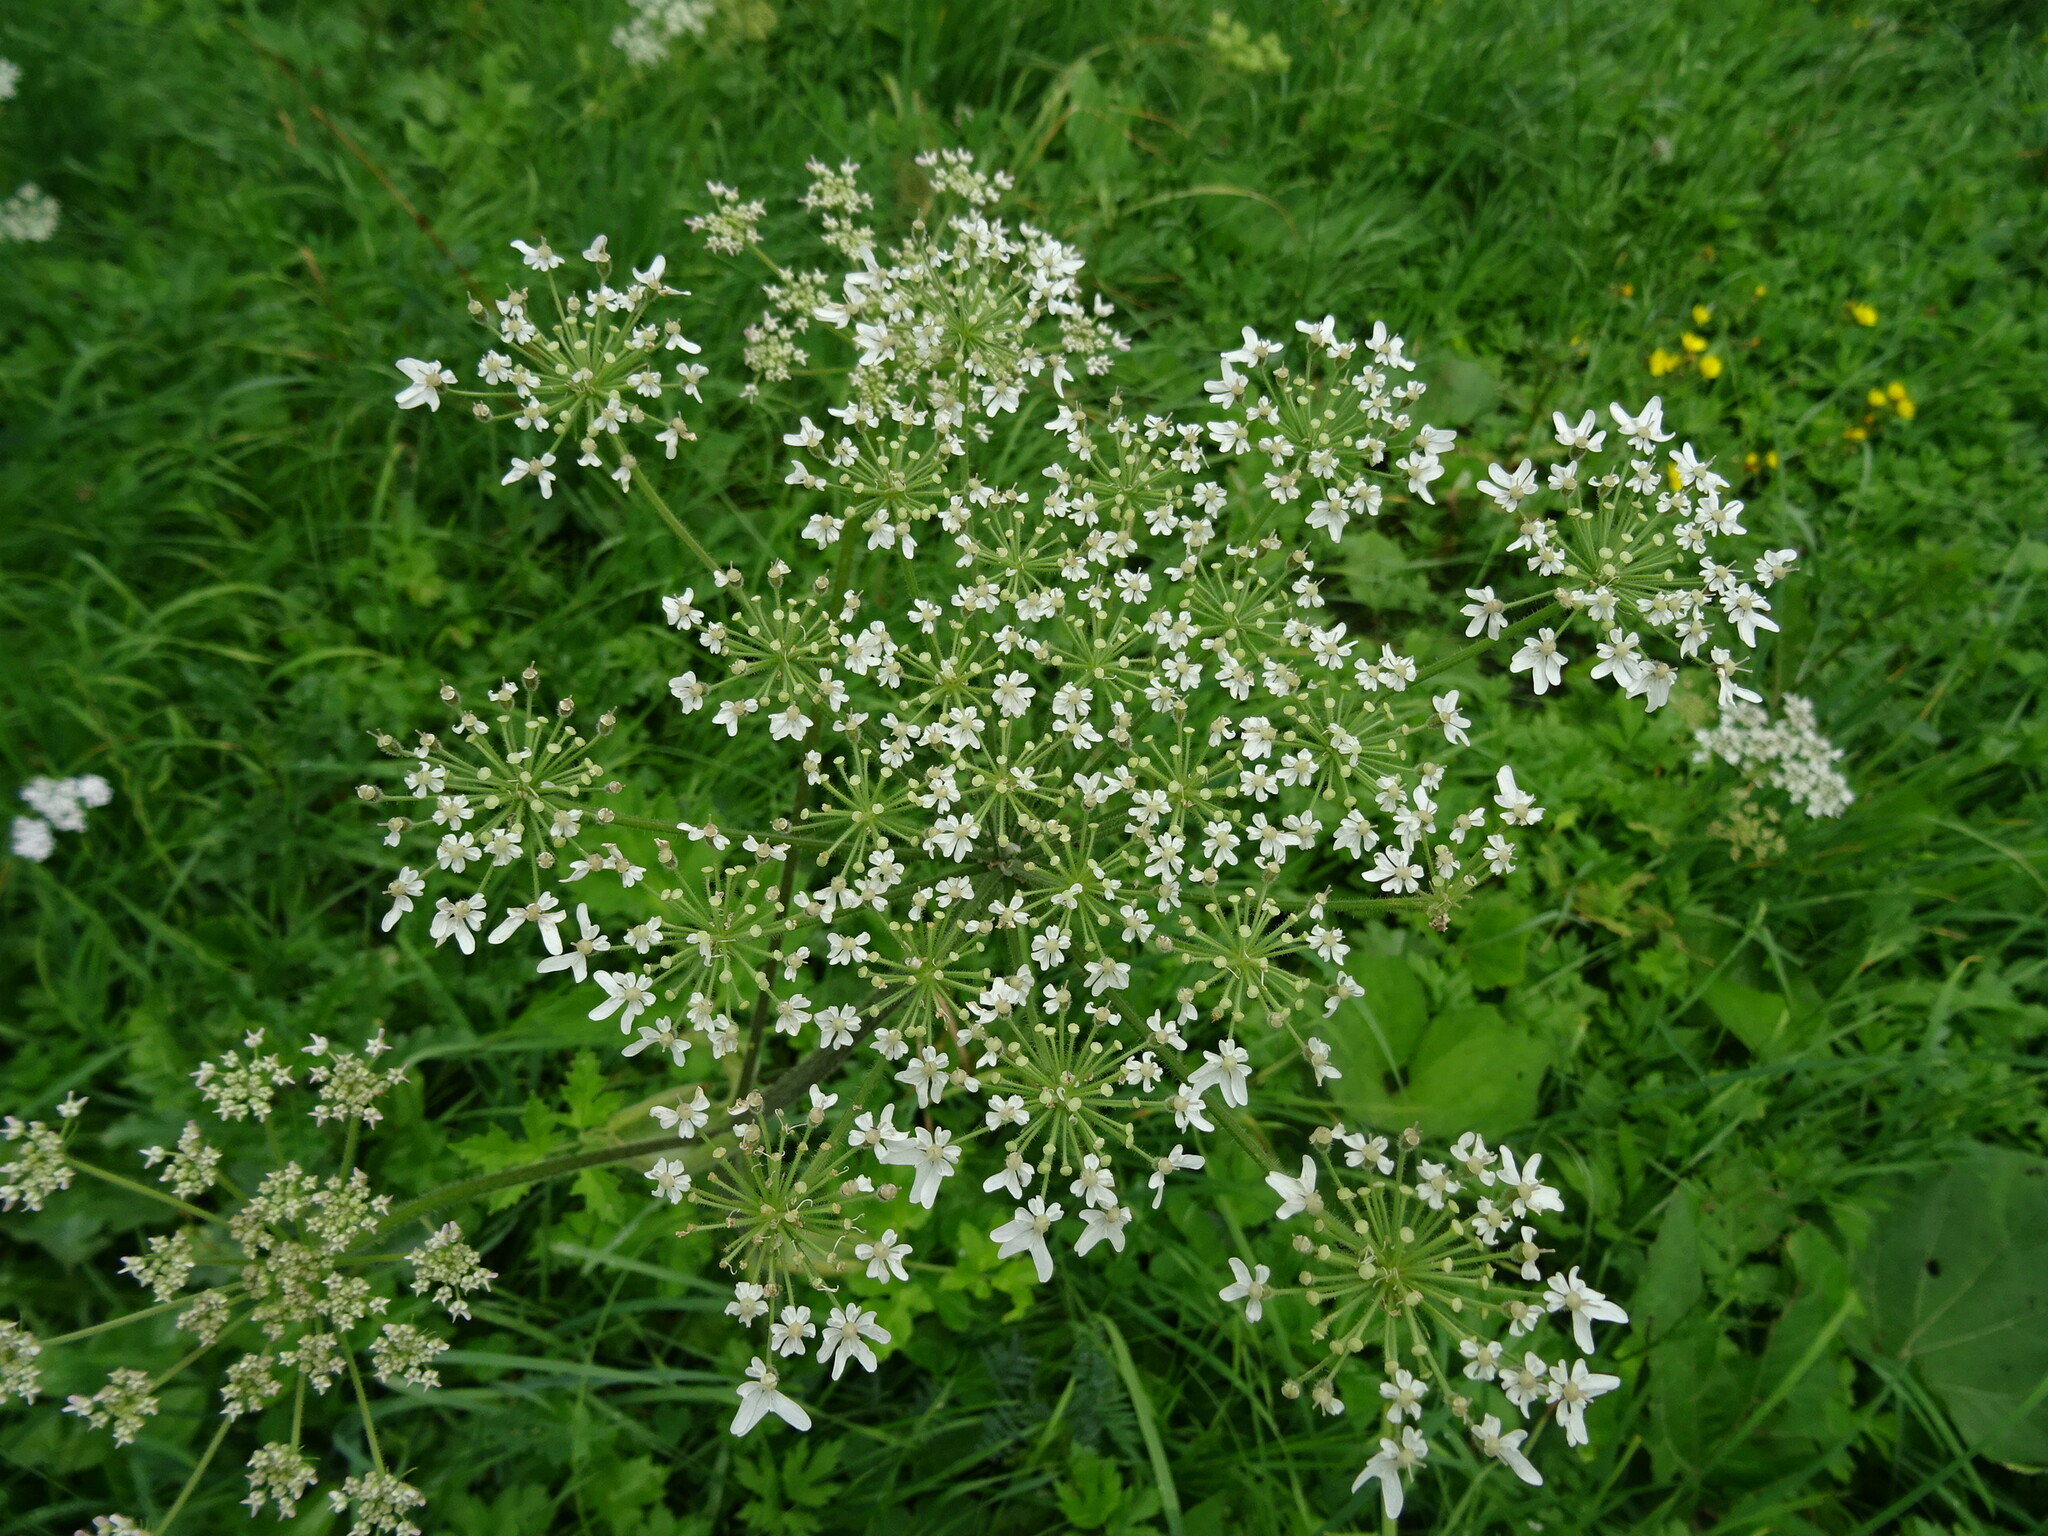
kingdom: Plantae
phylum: Tracheophyta
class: Magnoliopsida
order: Apiales
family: Apiaceae
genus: Heracleum
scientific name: Heracleum sphondylium
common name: Hogweed
